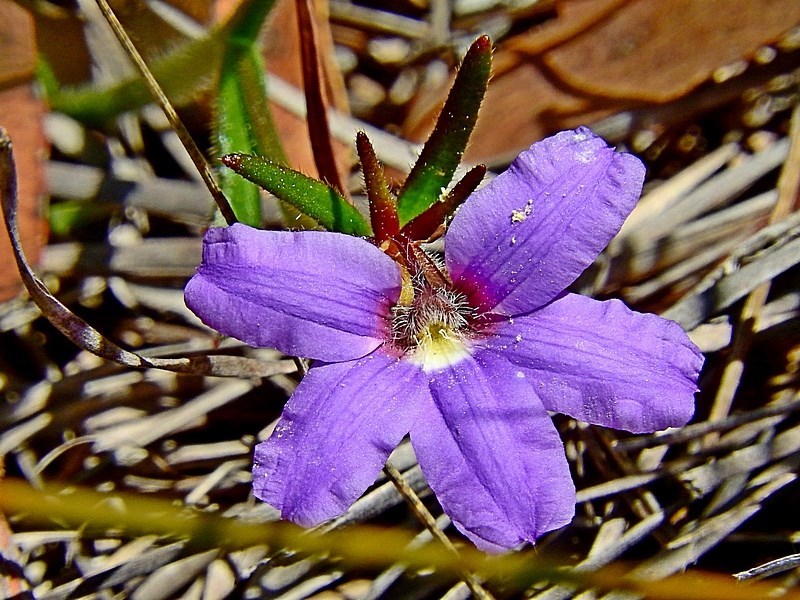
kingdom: Plantae
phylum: Tracheophyta
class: Magnoliopsida
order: Asterales
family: Goodeniaceae
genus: Scaevola
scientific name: Scaevola ramosissima
